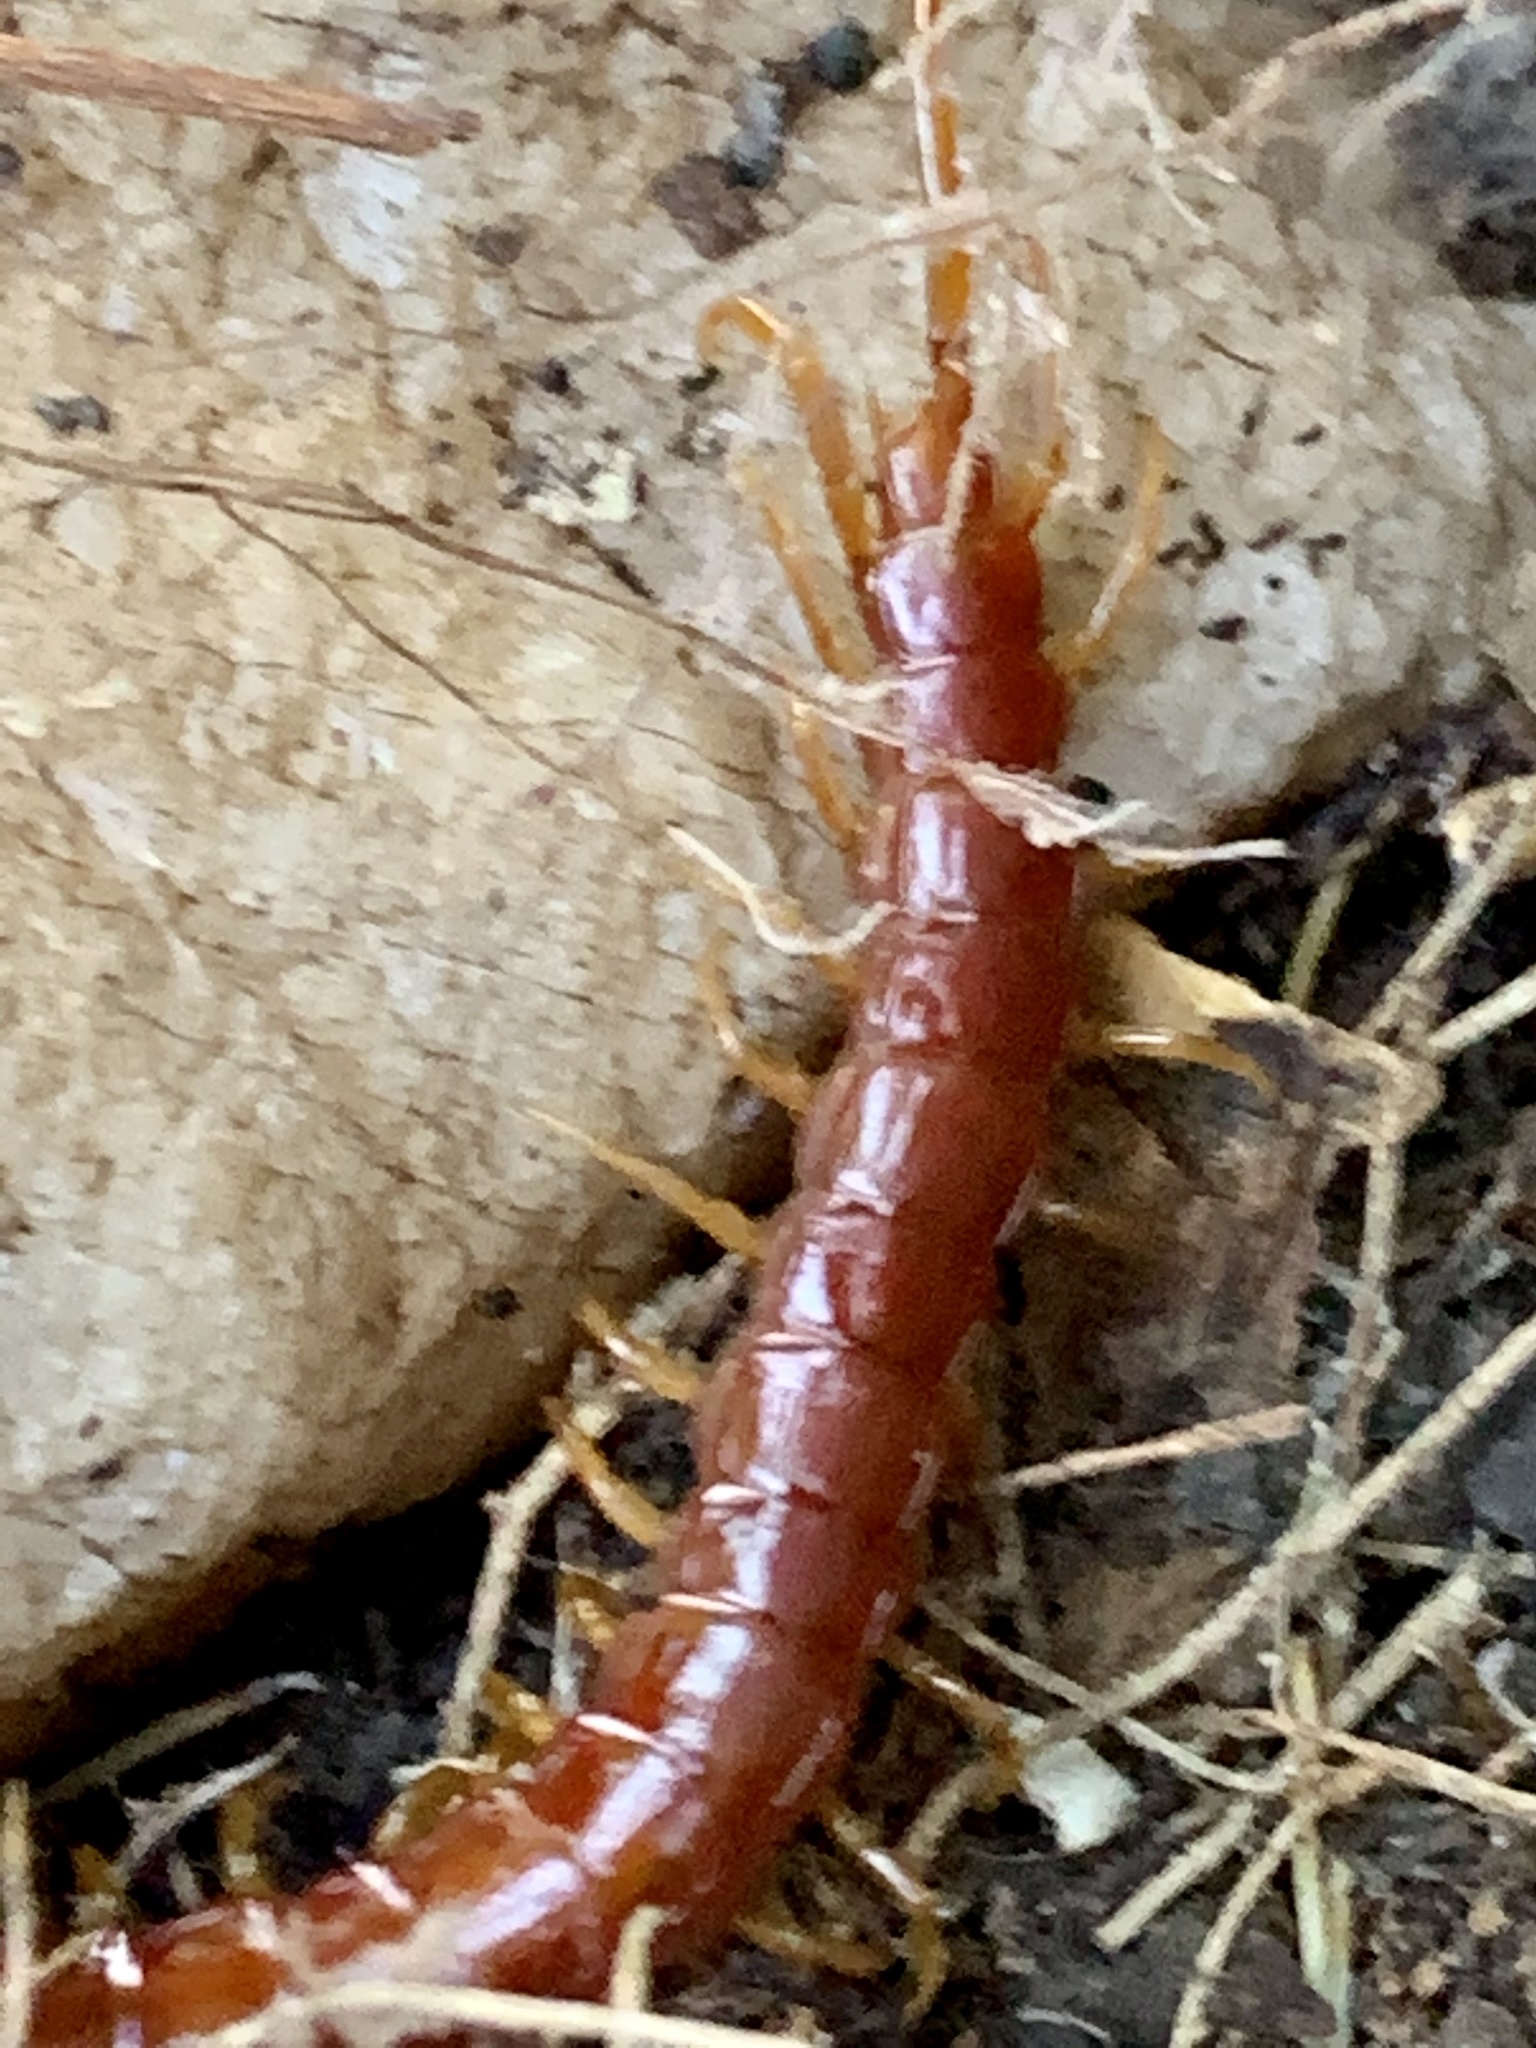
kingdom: Animalia
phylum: Arthropoda
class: Chilopoda
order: Scolopendromorpha
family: Scolopocryptopidae
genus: Scolopocryptops
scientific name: Scolopocryptops spinicaudus
